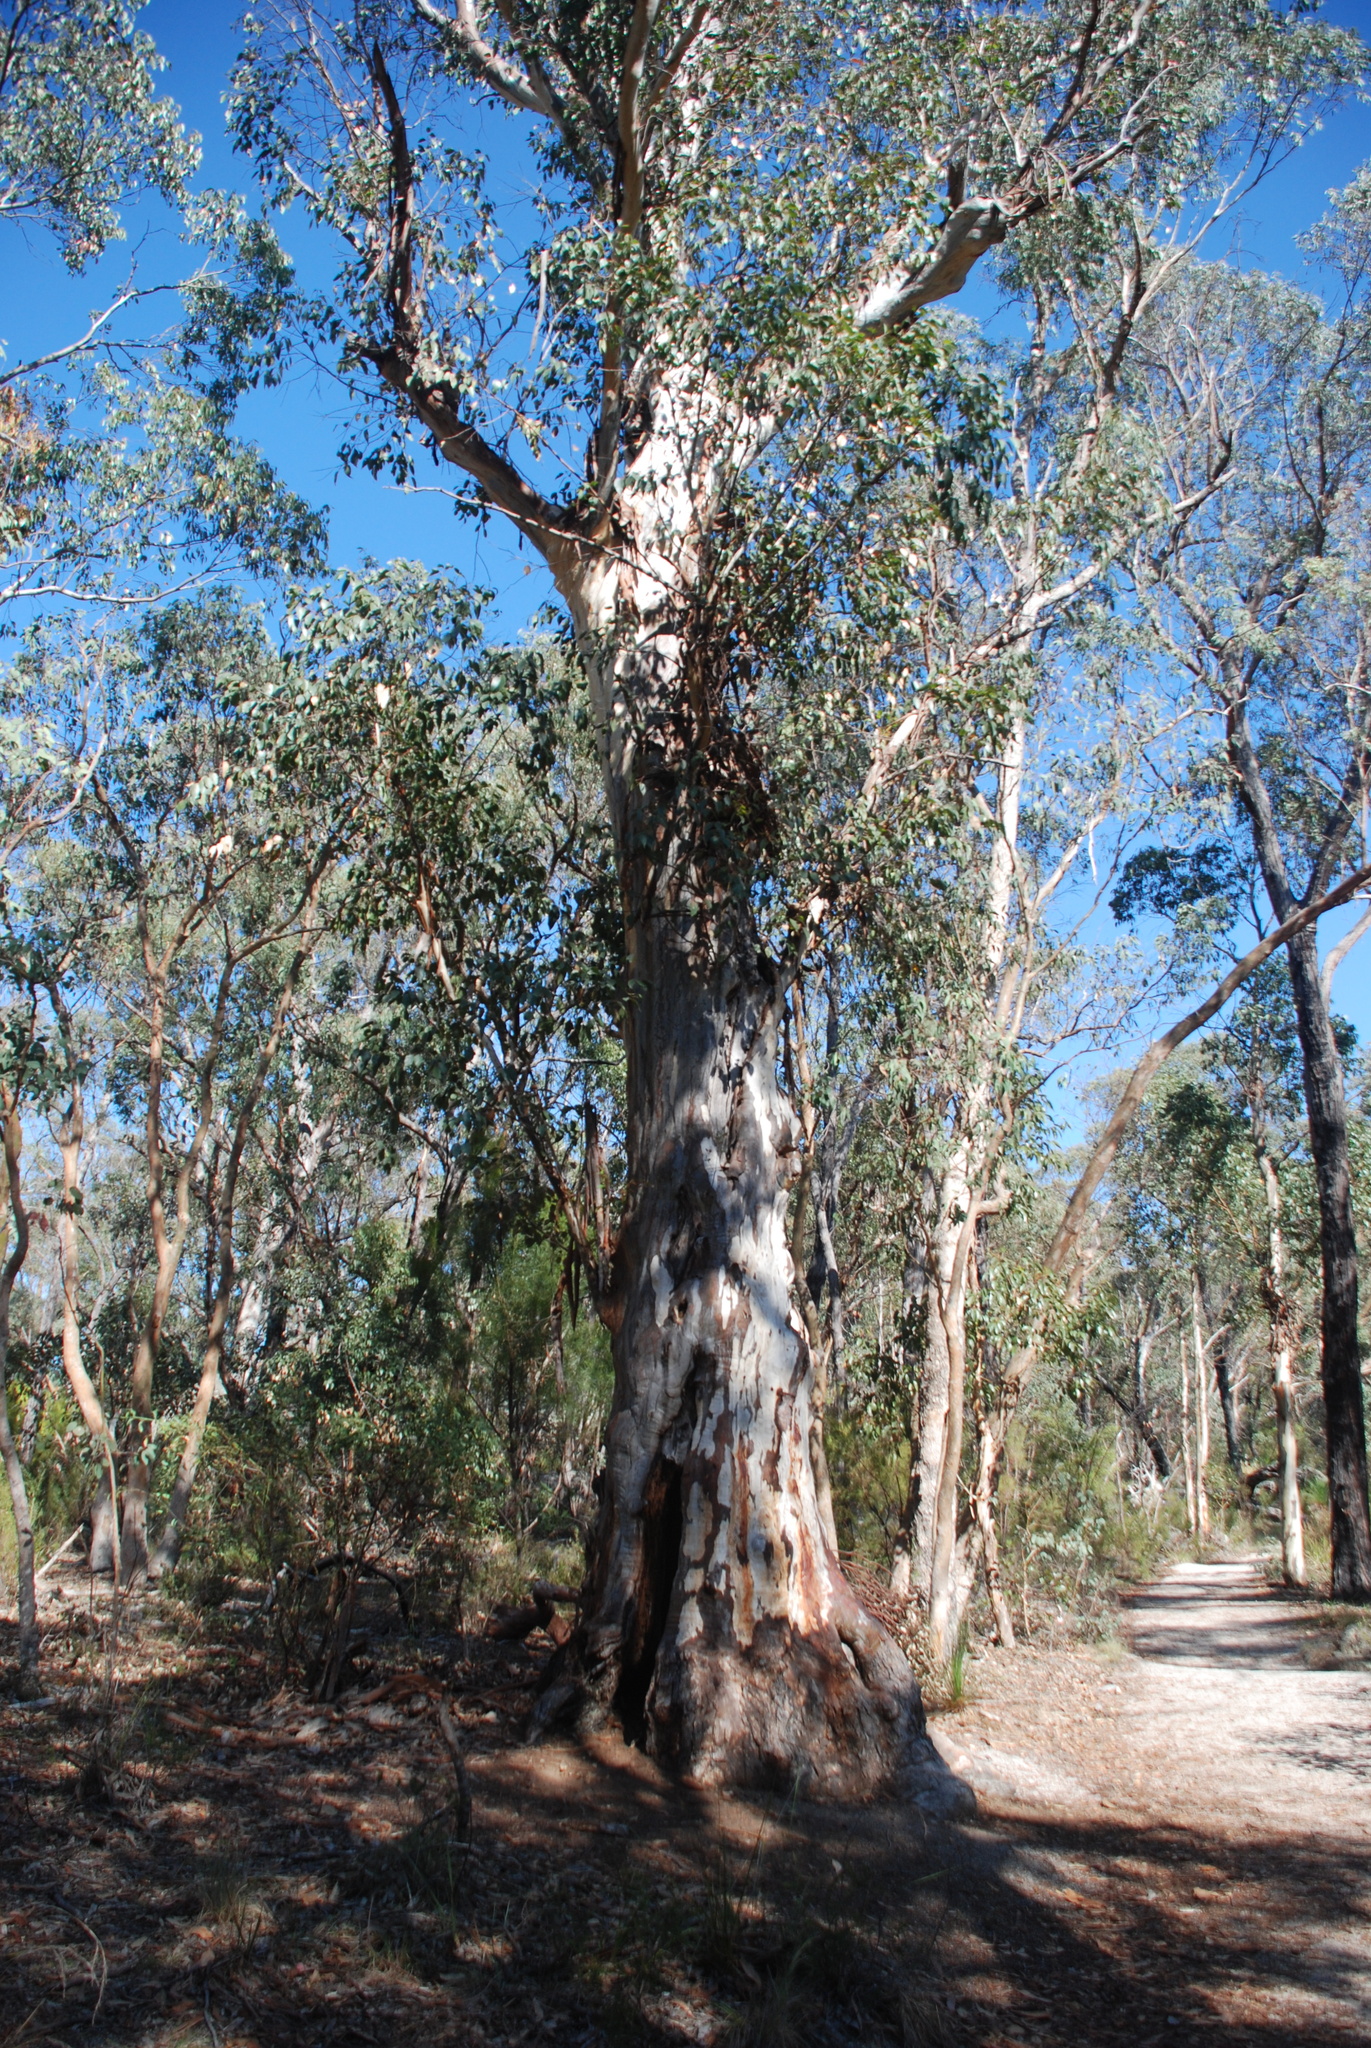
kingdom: Plantae
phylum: Tracheophyta
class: Magnoliopsida
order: Myrtales
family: Myrtaceae
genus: Eucalyptus
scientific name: Eucalyptus brunnea
